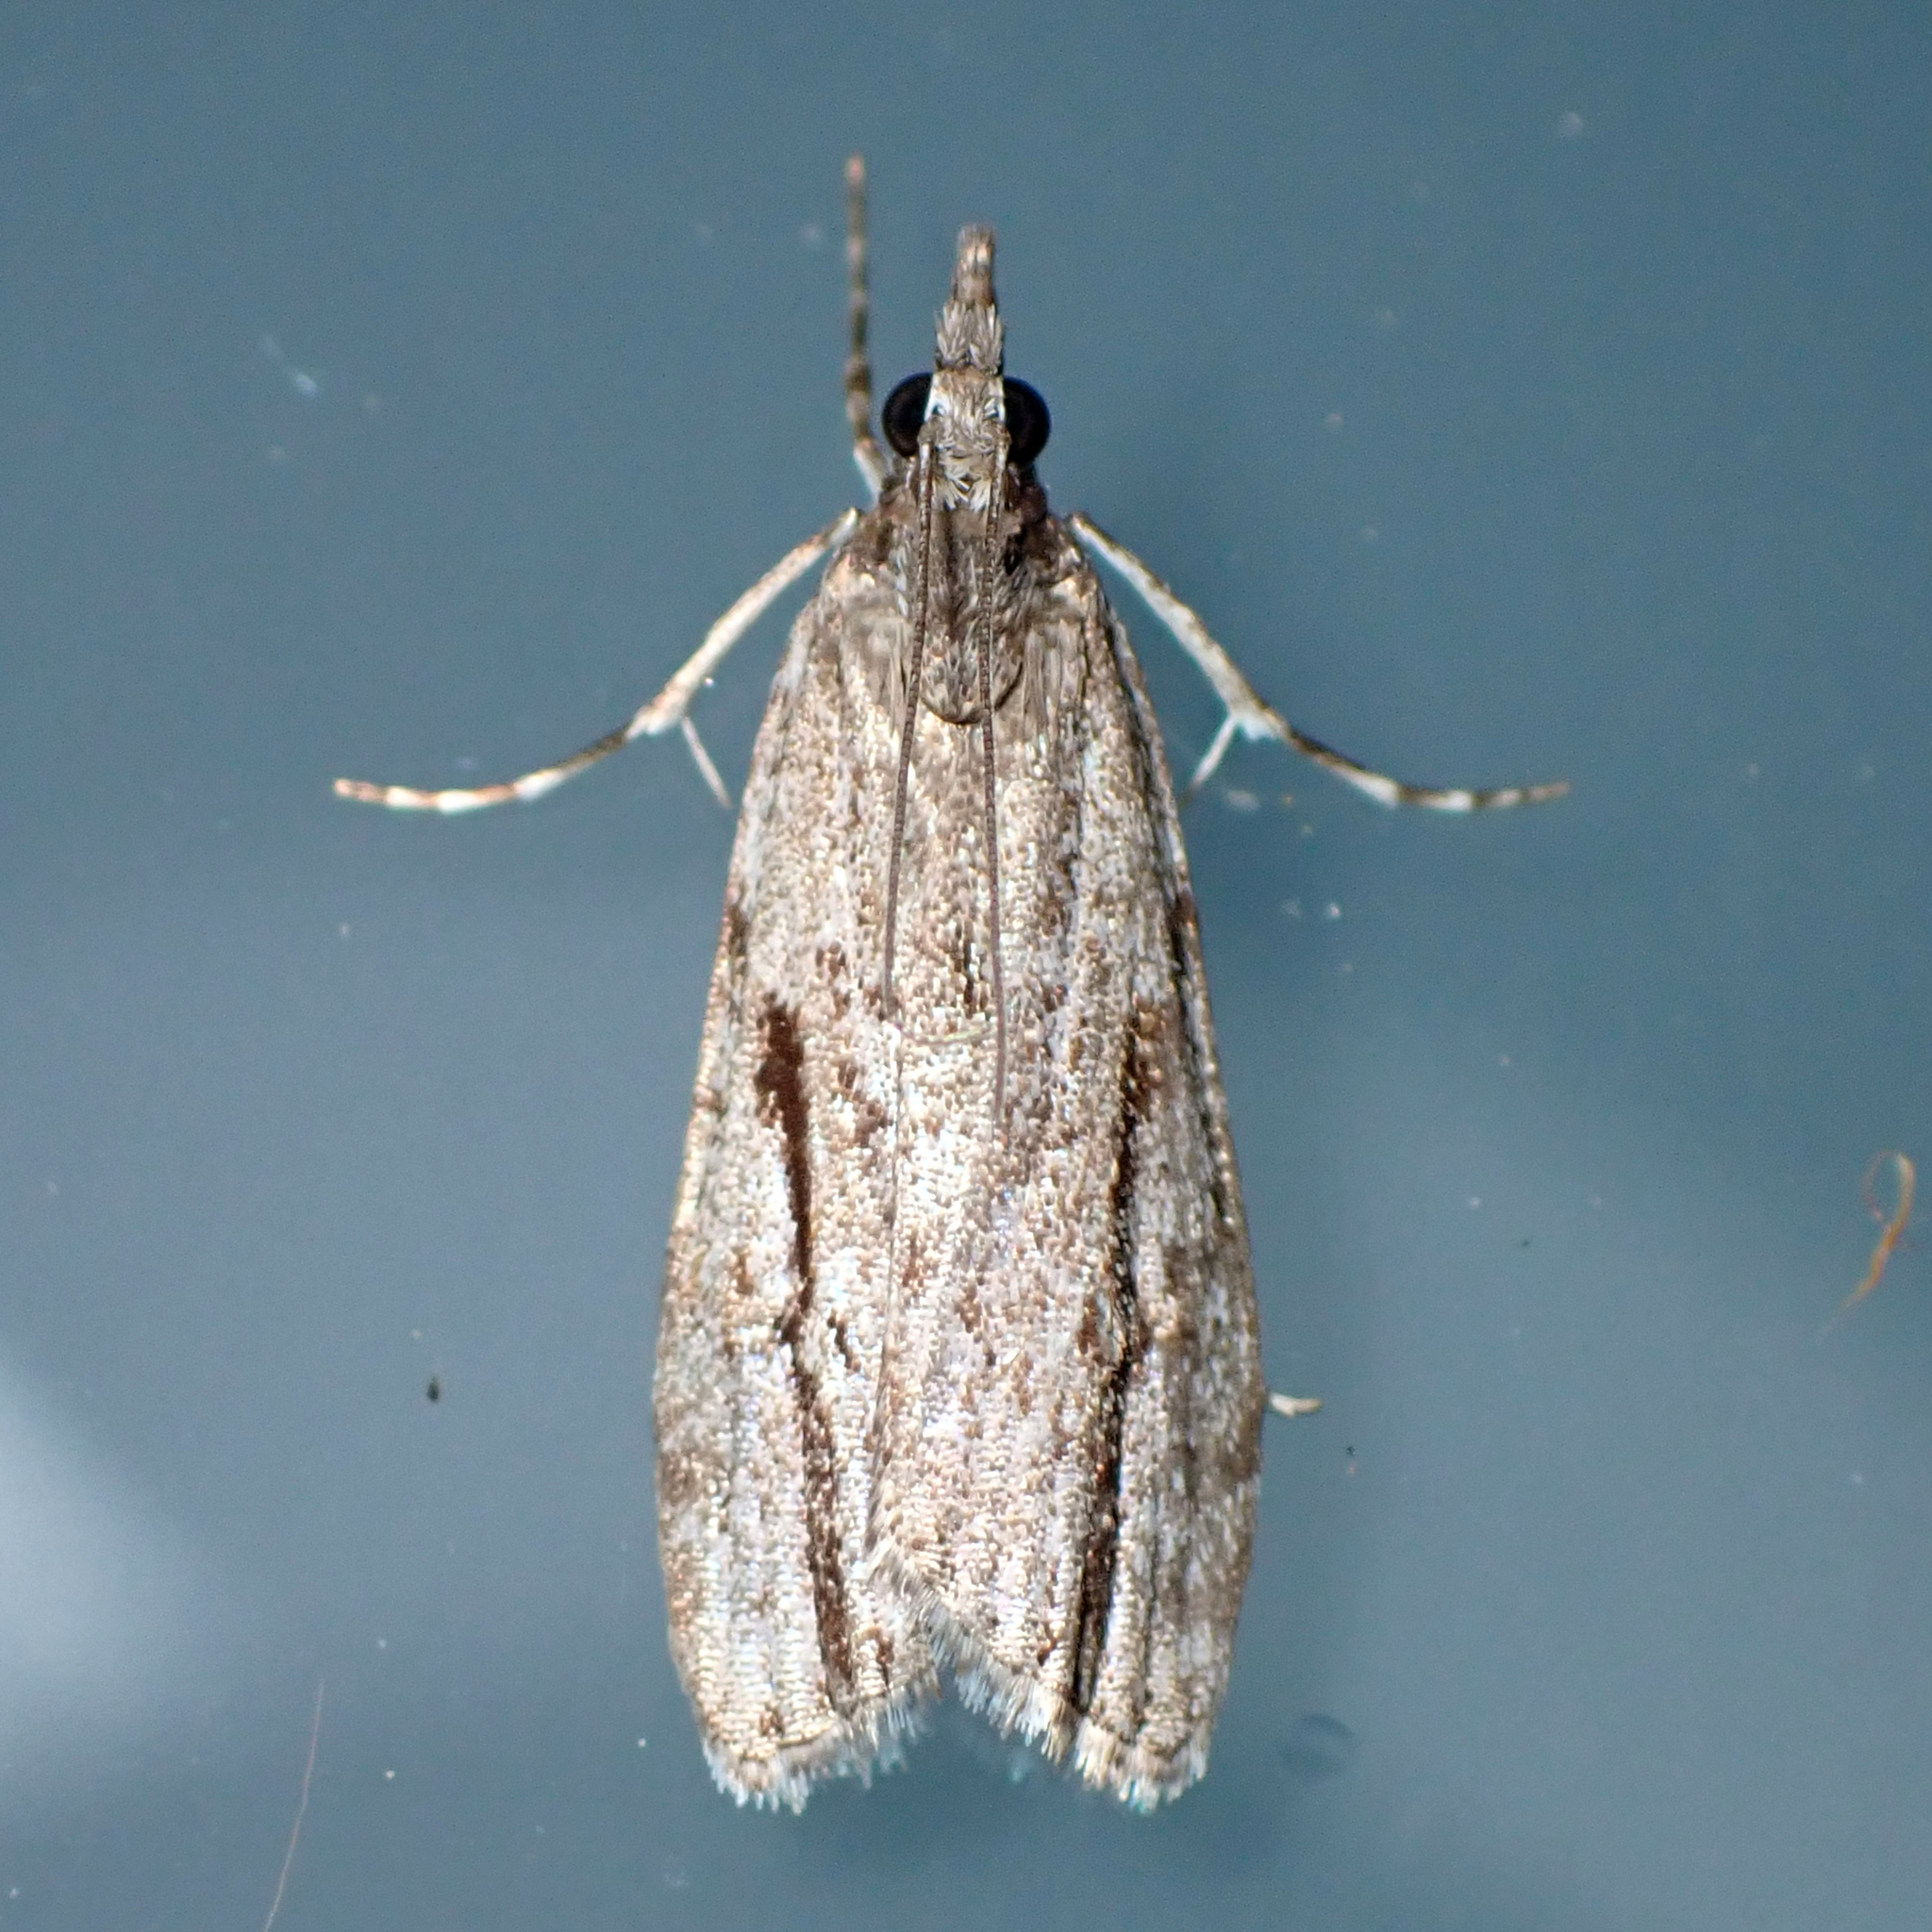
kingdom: Animalia
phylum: Arthropoda
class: Insecta
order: Lepidoptera
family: Crambidae
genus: Eudonia
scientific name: Eudonia bisinualis
